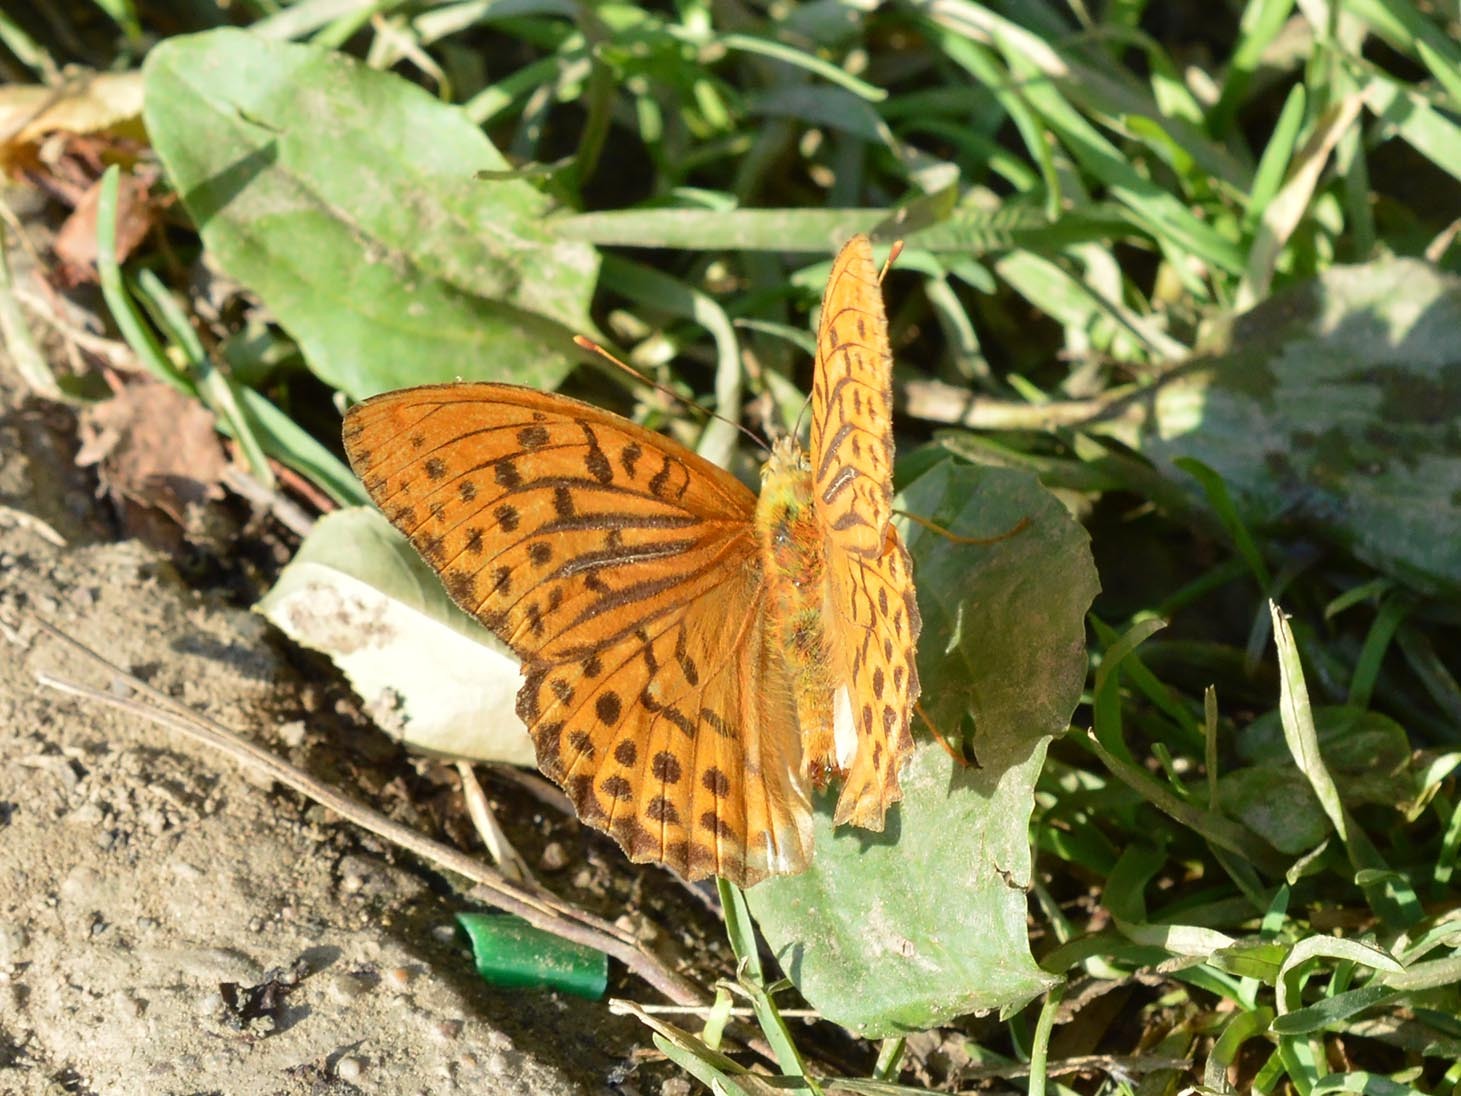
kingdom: Animalia
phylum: Arthropoda
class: Insecta
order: Lepidoptera
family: Nymphalidae
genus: Argynnis
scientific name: Argynnis paphia
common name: Silver-washed fritillary
